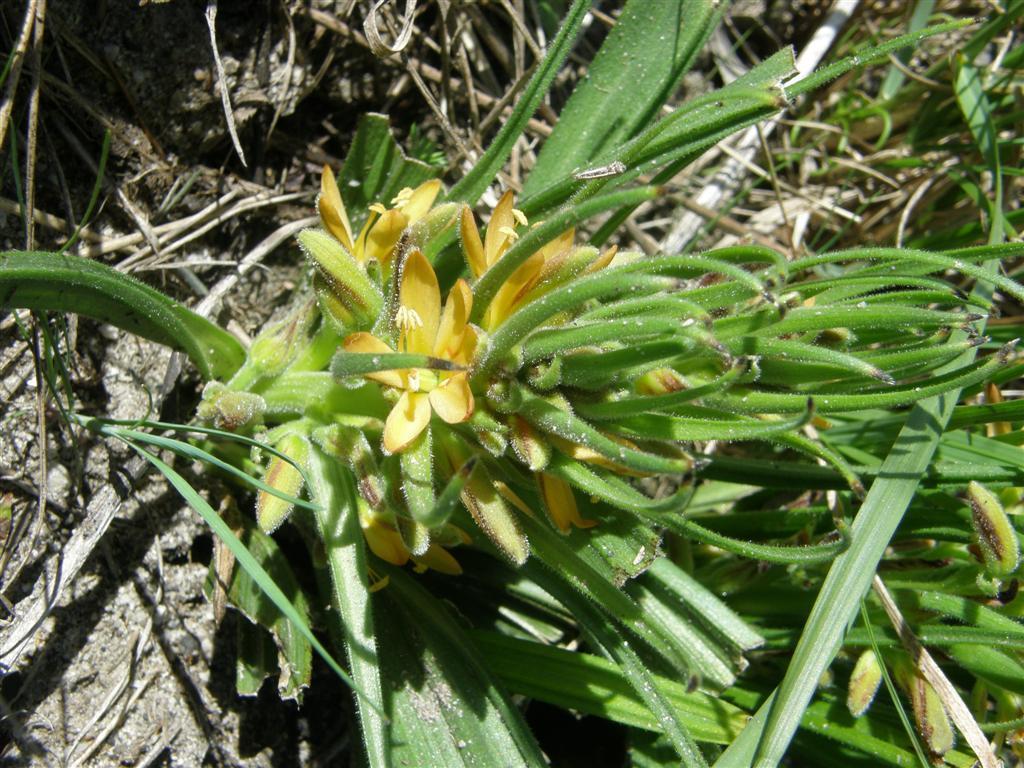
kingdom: Plantae
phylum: Tracheophyta
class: Liliopsida
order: Commelinales
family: Haemodoraceae
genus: Wachendorfia
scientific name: Wachendorfia multiflora
